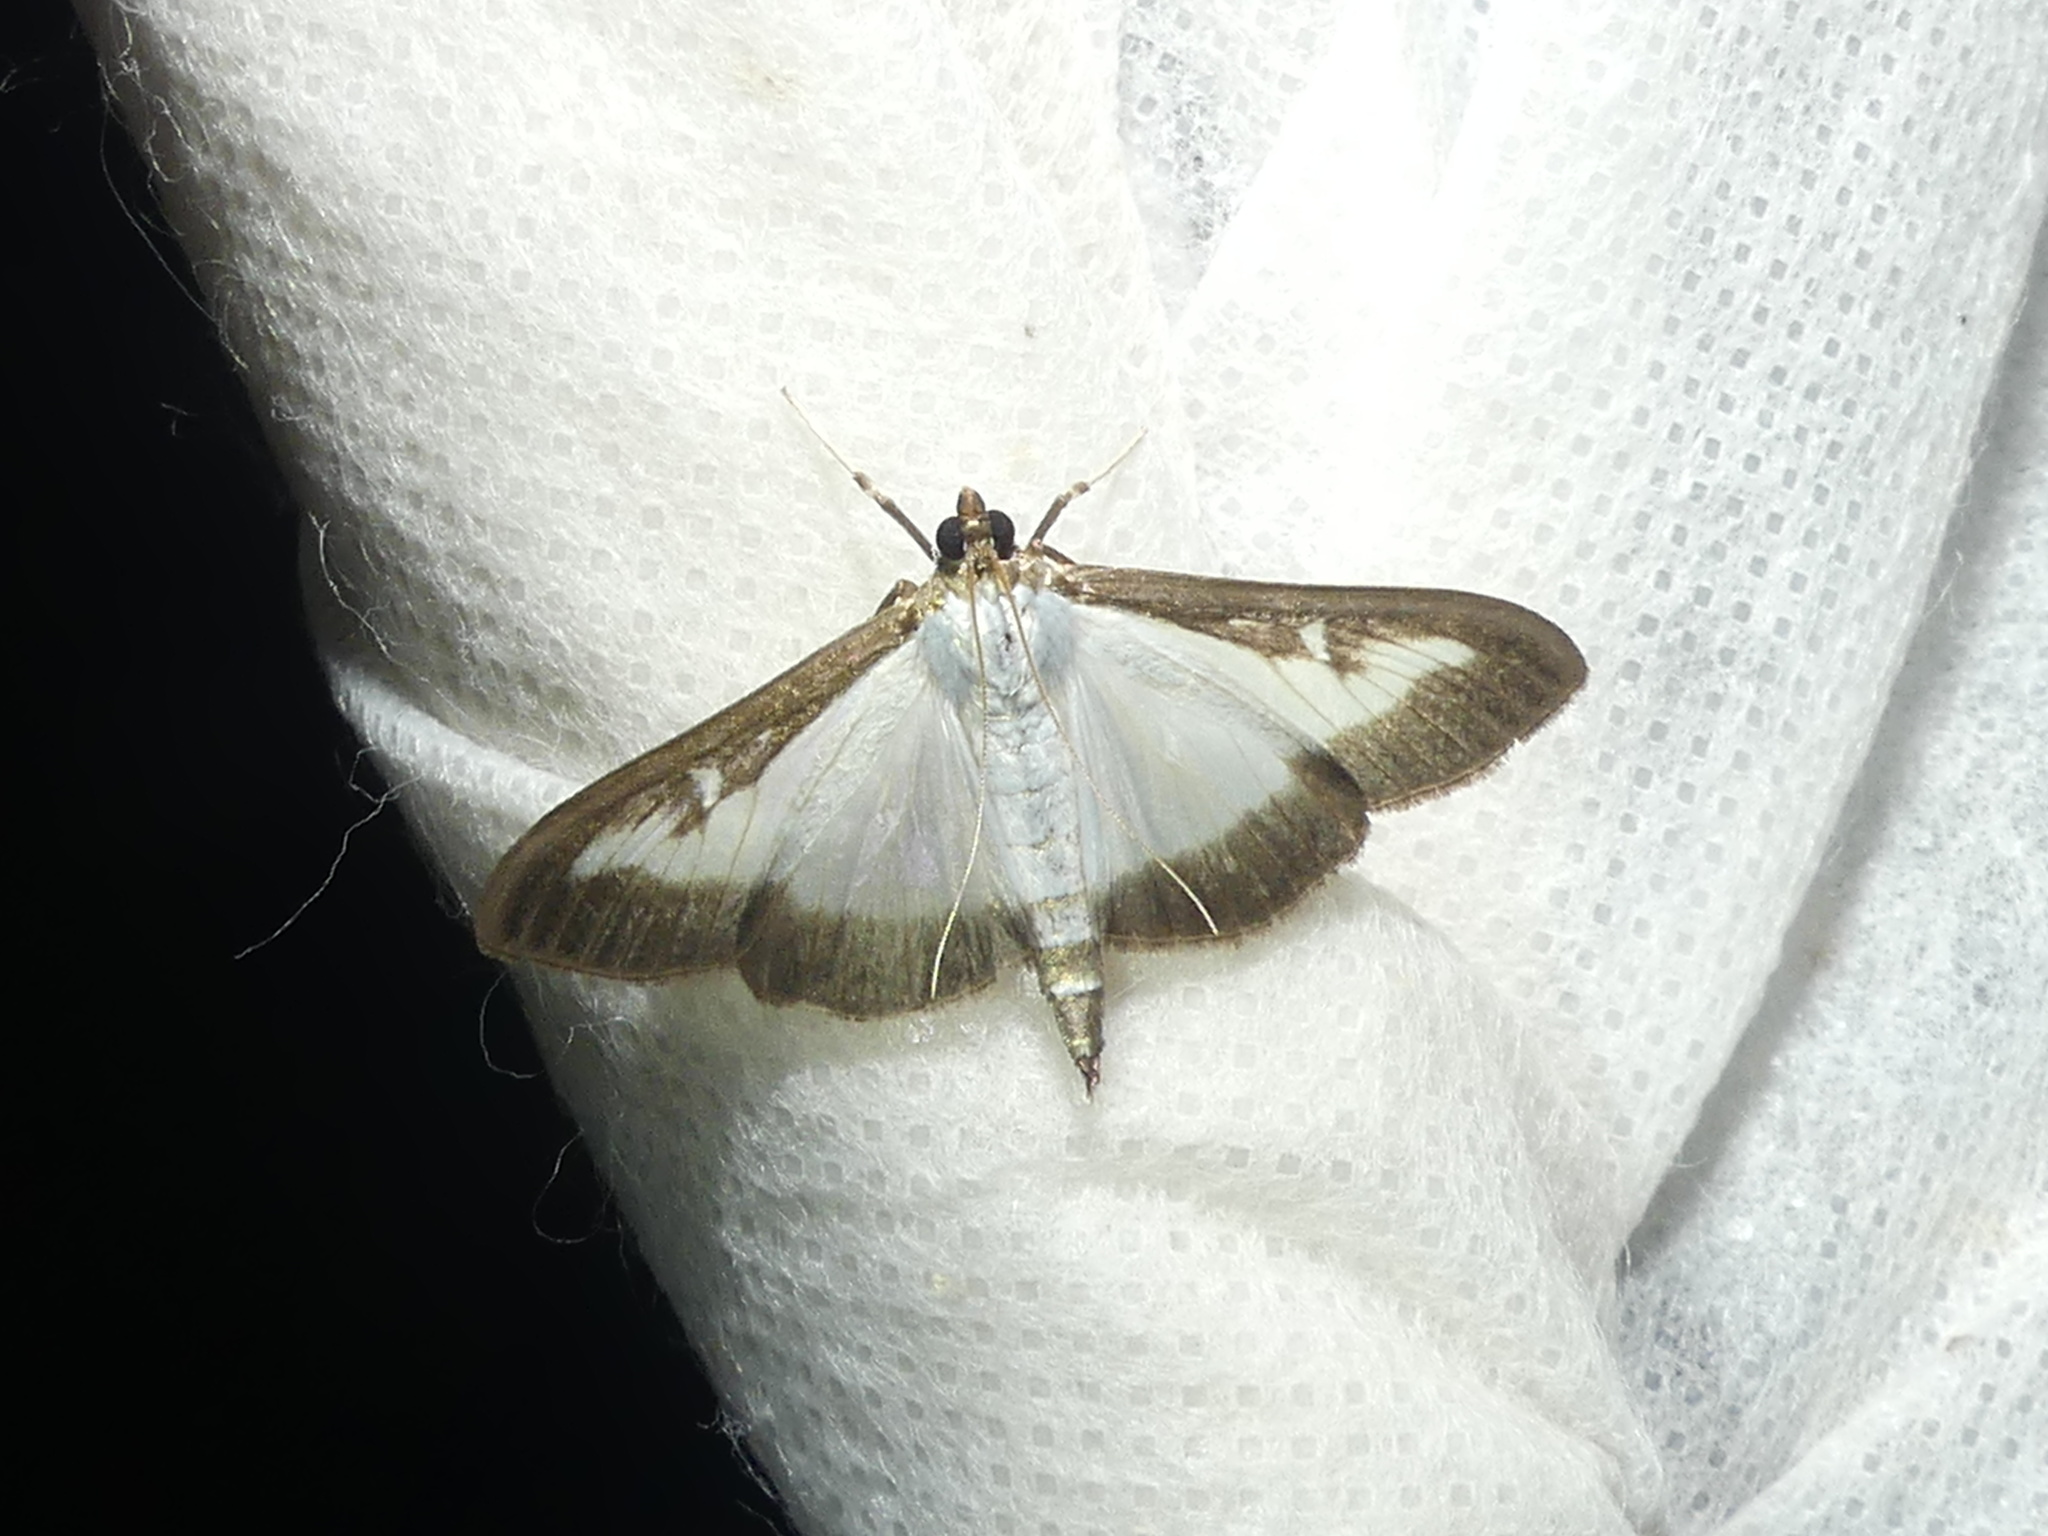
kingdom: Animalia
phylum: Arthropoda
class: Insecta
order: Lepidoptera
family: Crambidae
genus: Cydalima
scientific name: Cydalima perspectalis
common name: Box tree moth
